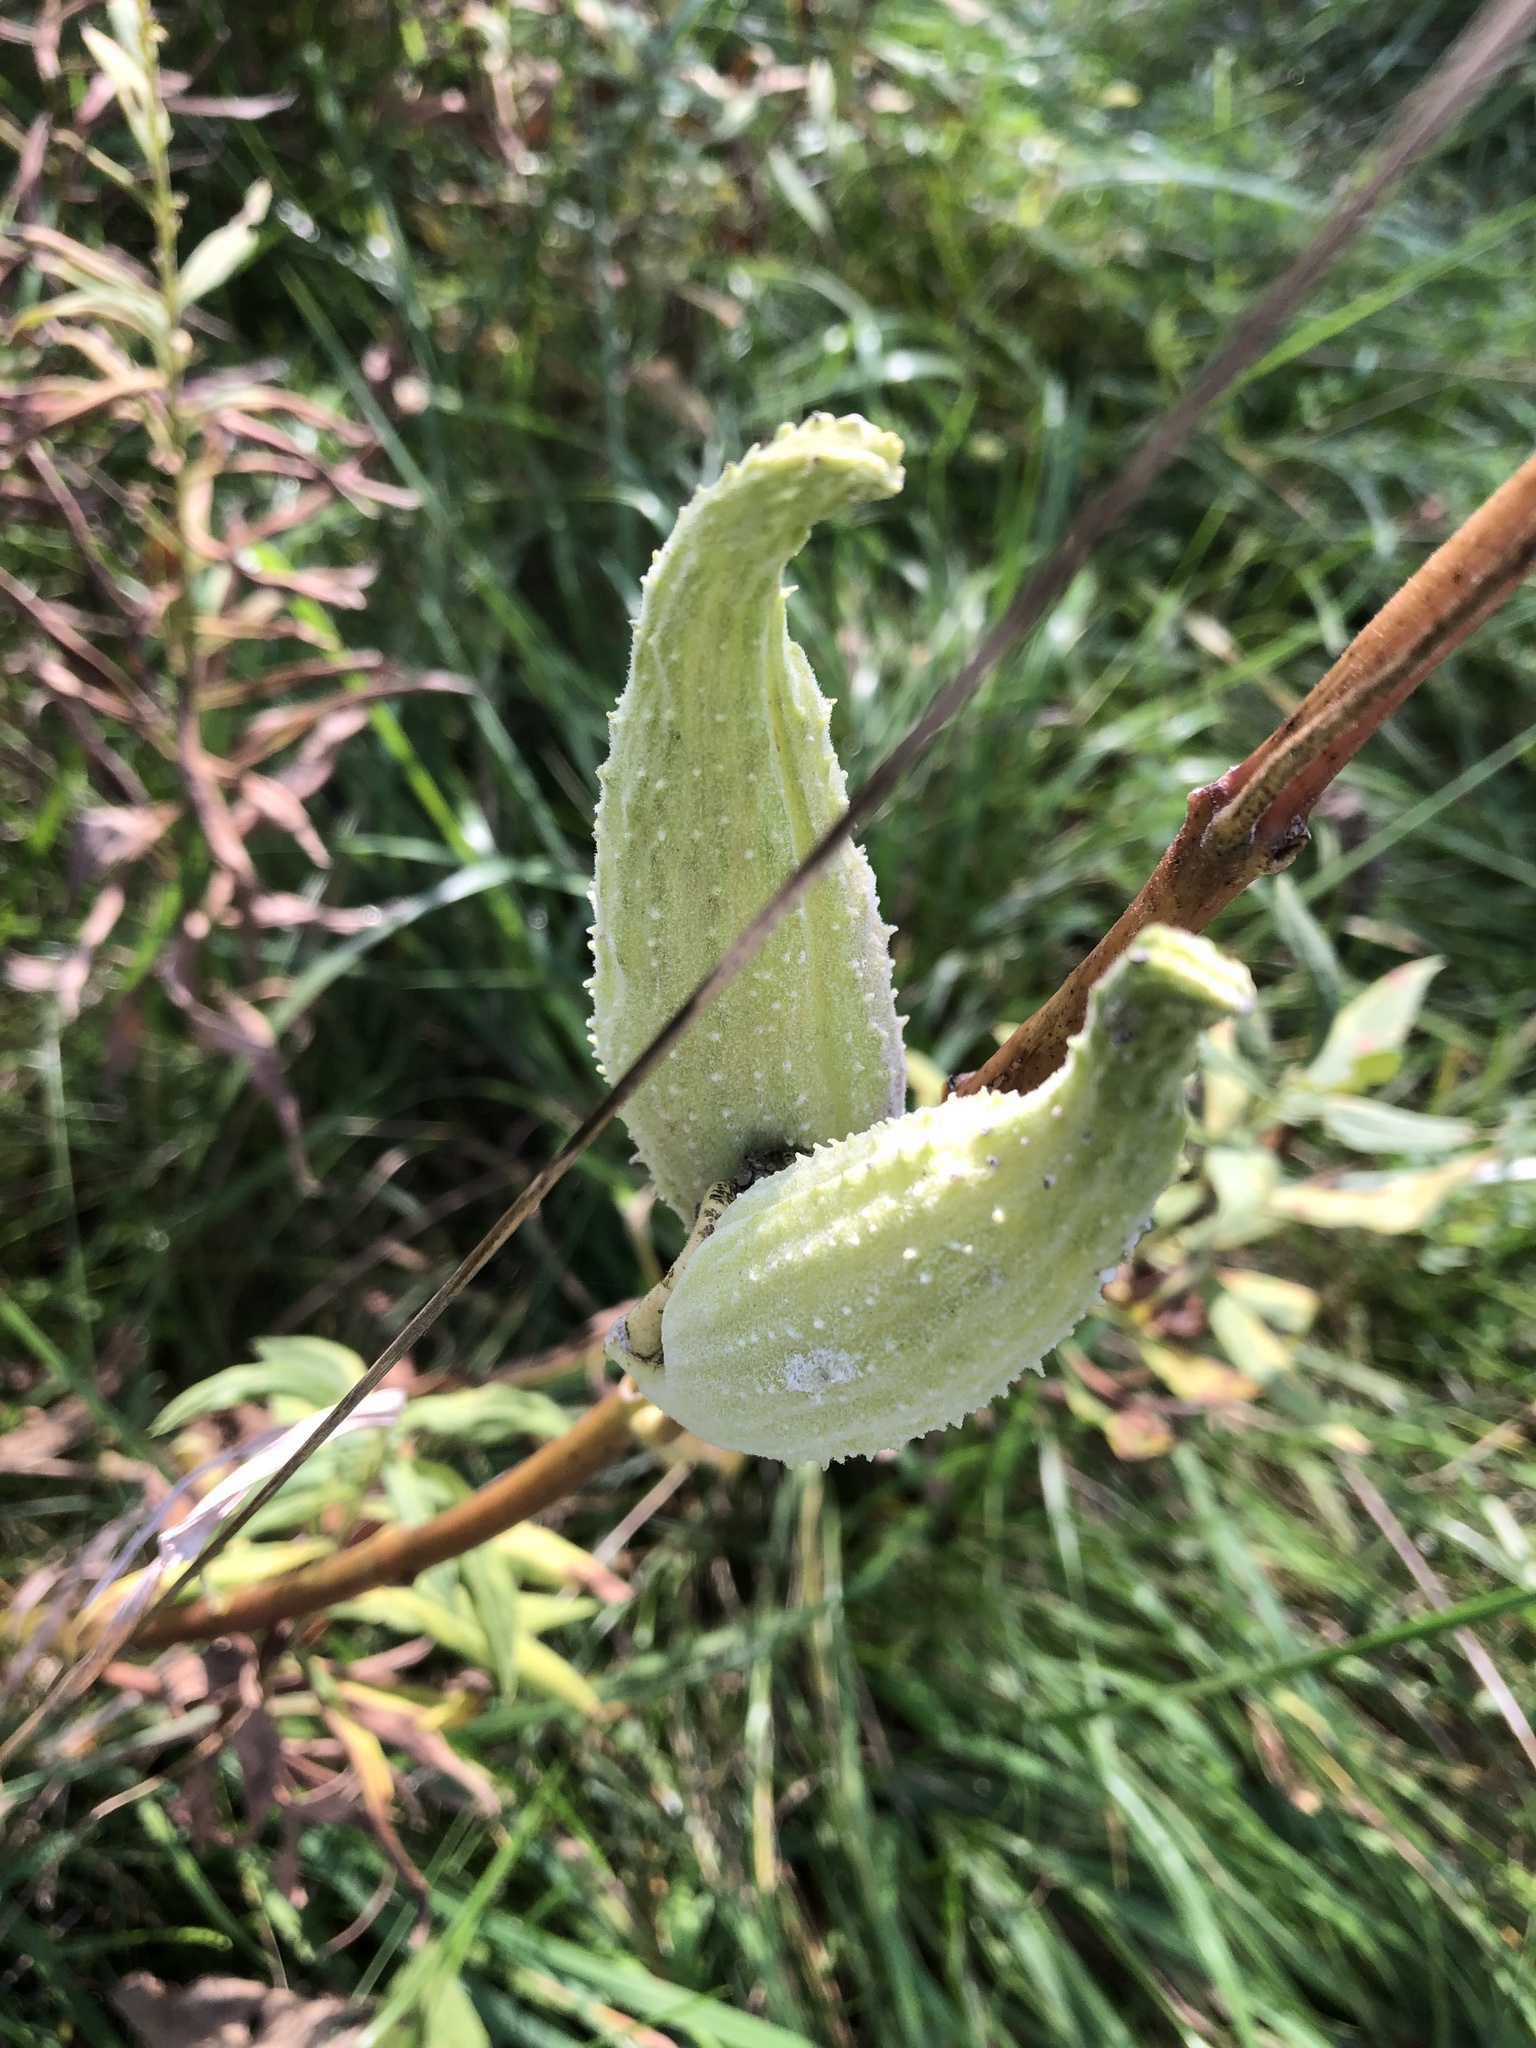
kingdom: Plantae
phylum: Tracheophyta
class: Magnoliopsida
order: Gentianales
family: Apocynaceae
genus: Asclepias
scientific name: Asclepias syriaca
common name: Common milkweed
